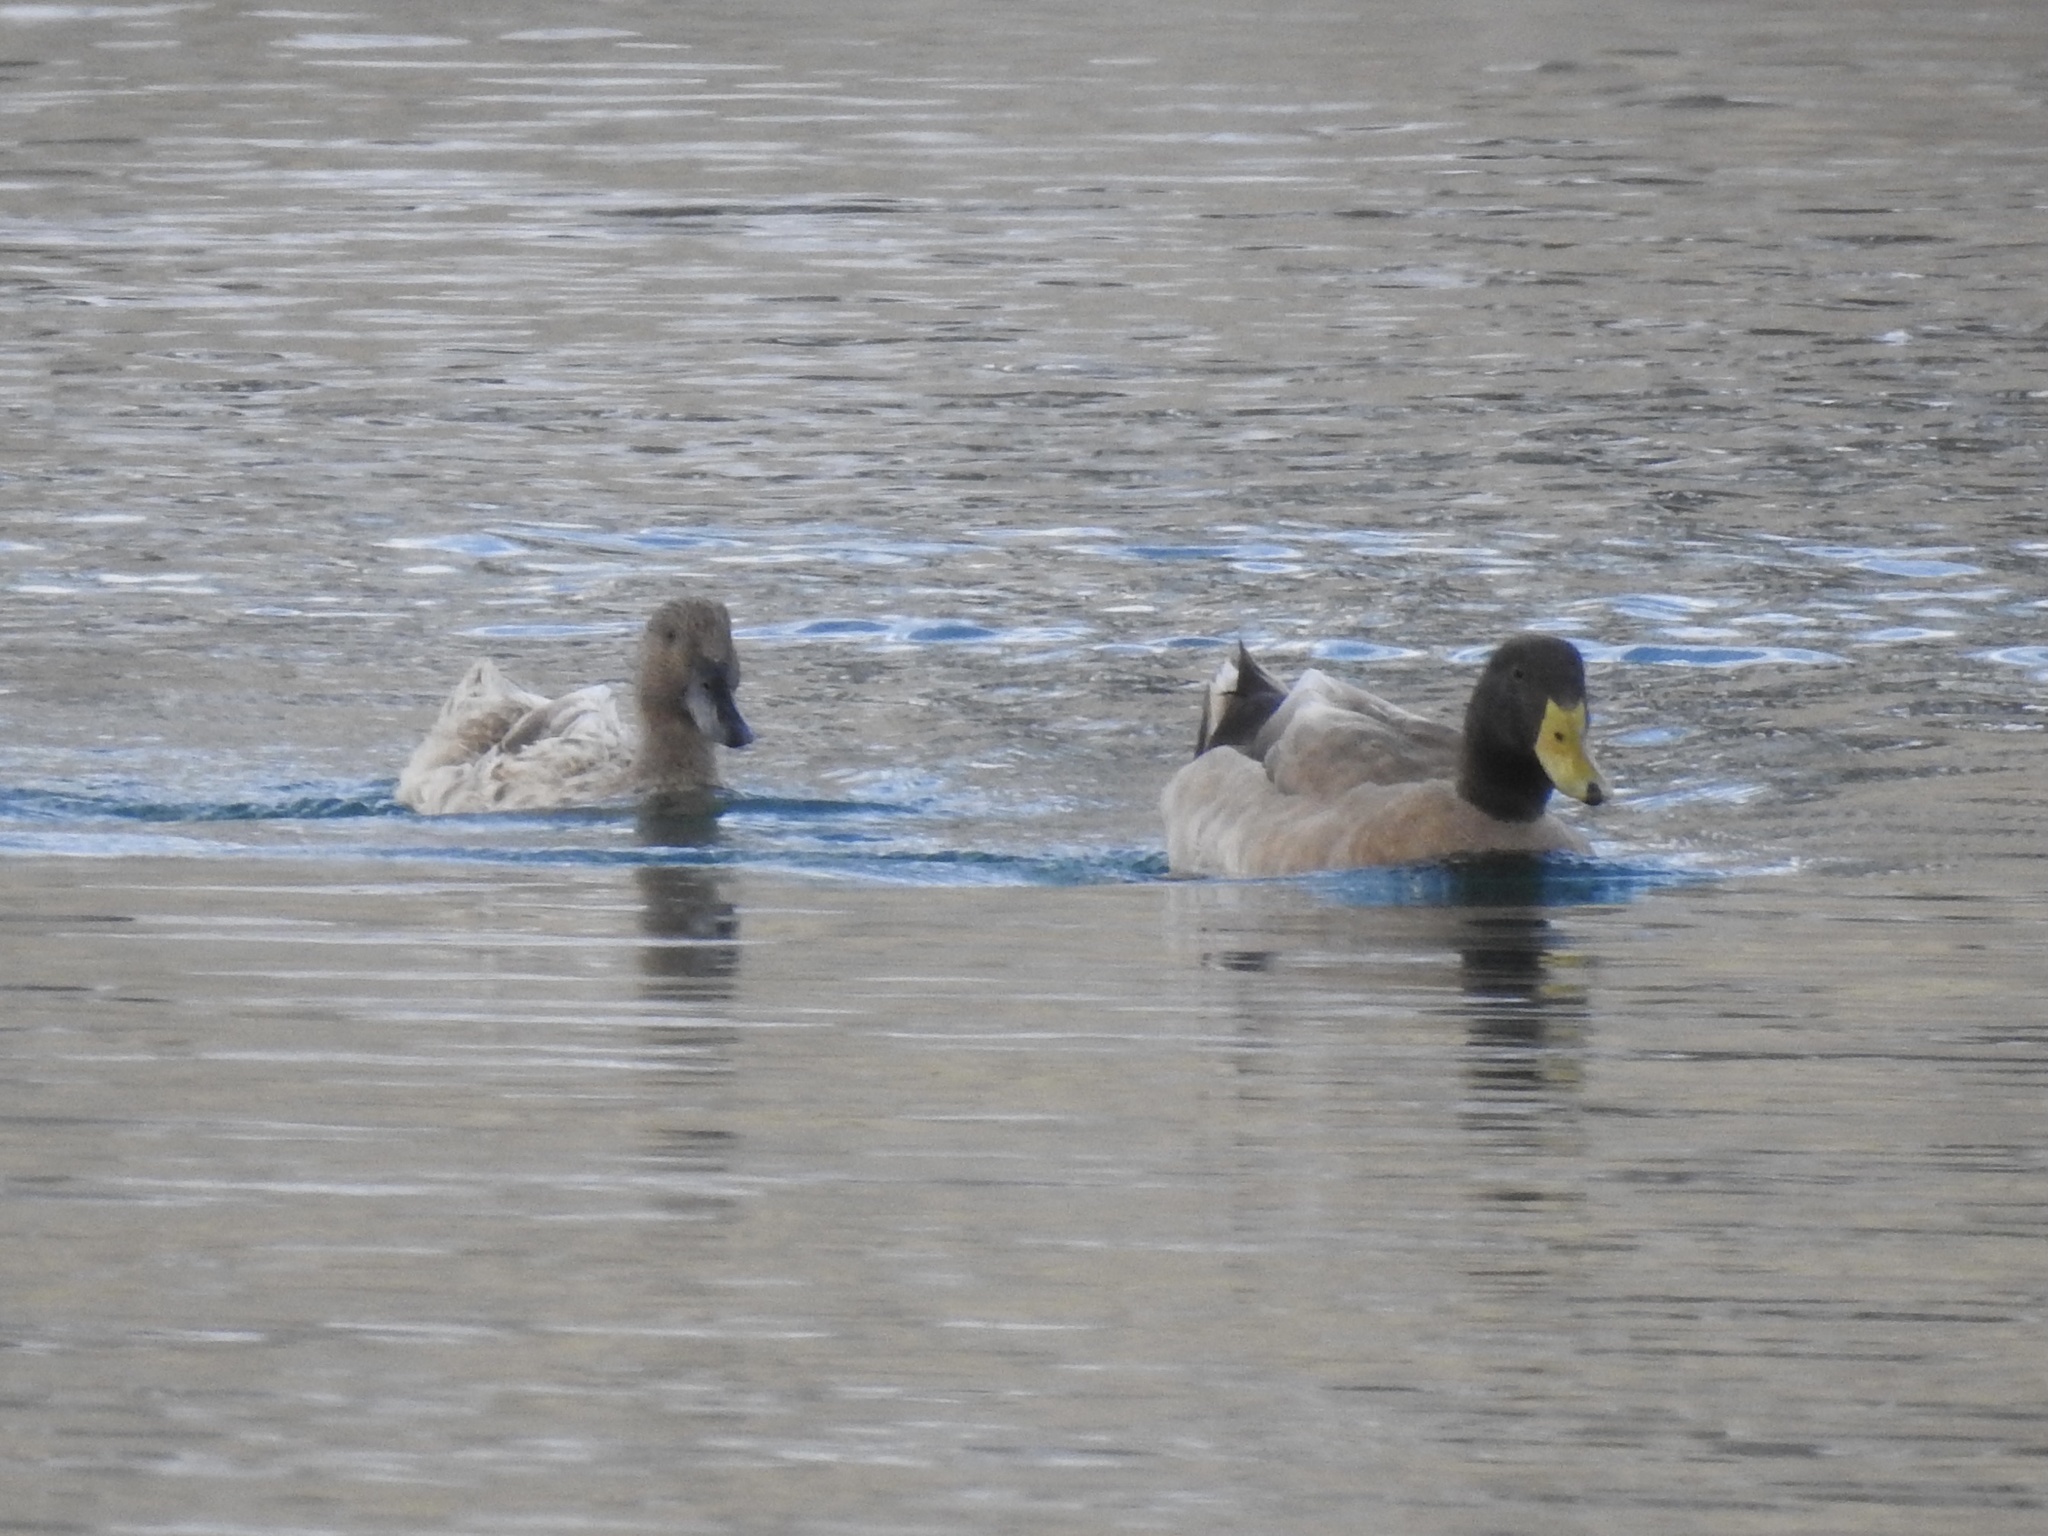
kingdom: Animalia
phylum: Chordata
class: Aves
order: Anseriformes
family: Anatidae
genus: Anas
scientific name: Anas platyrhynchos
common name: Mallard
